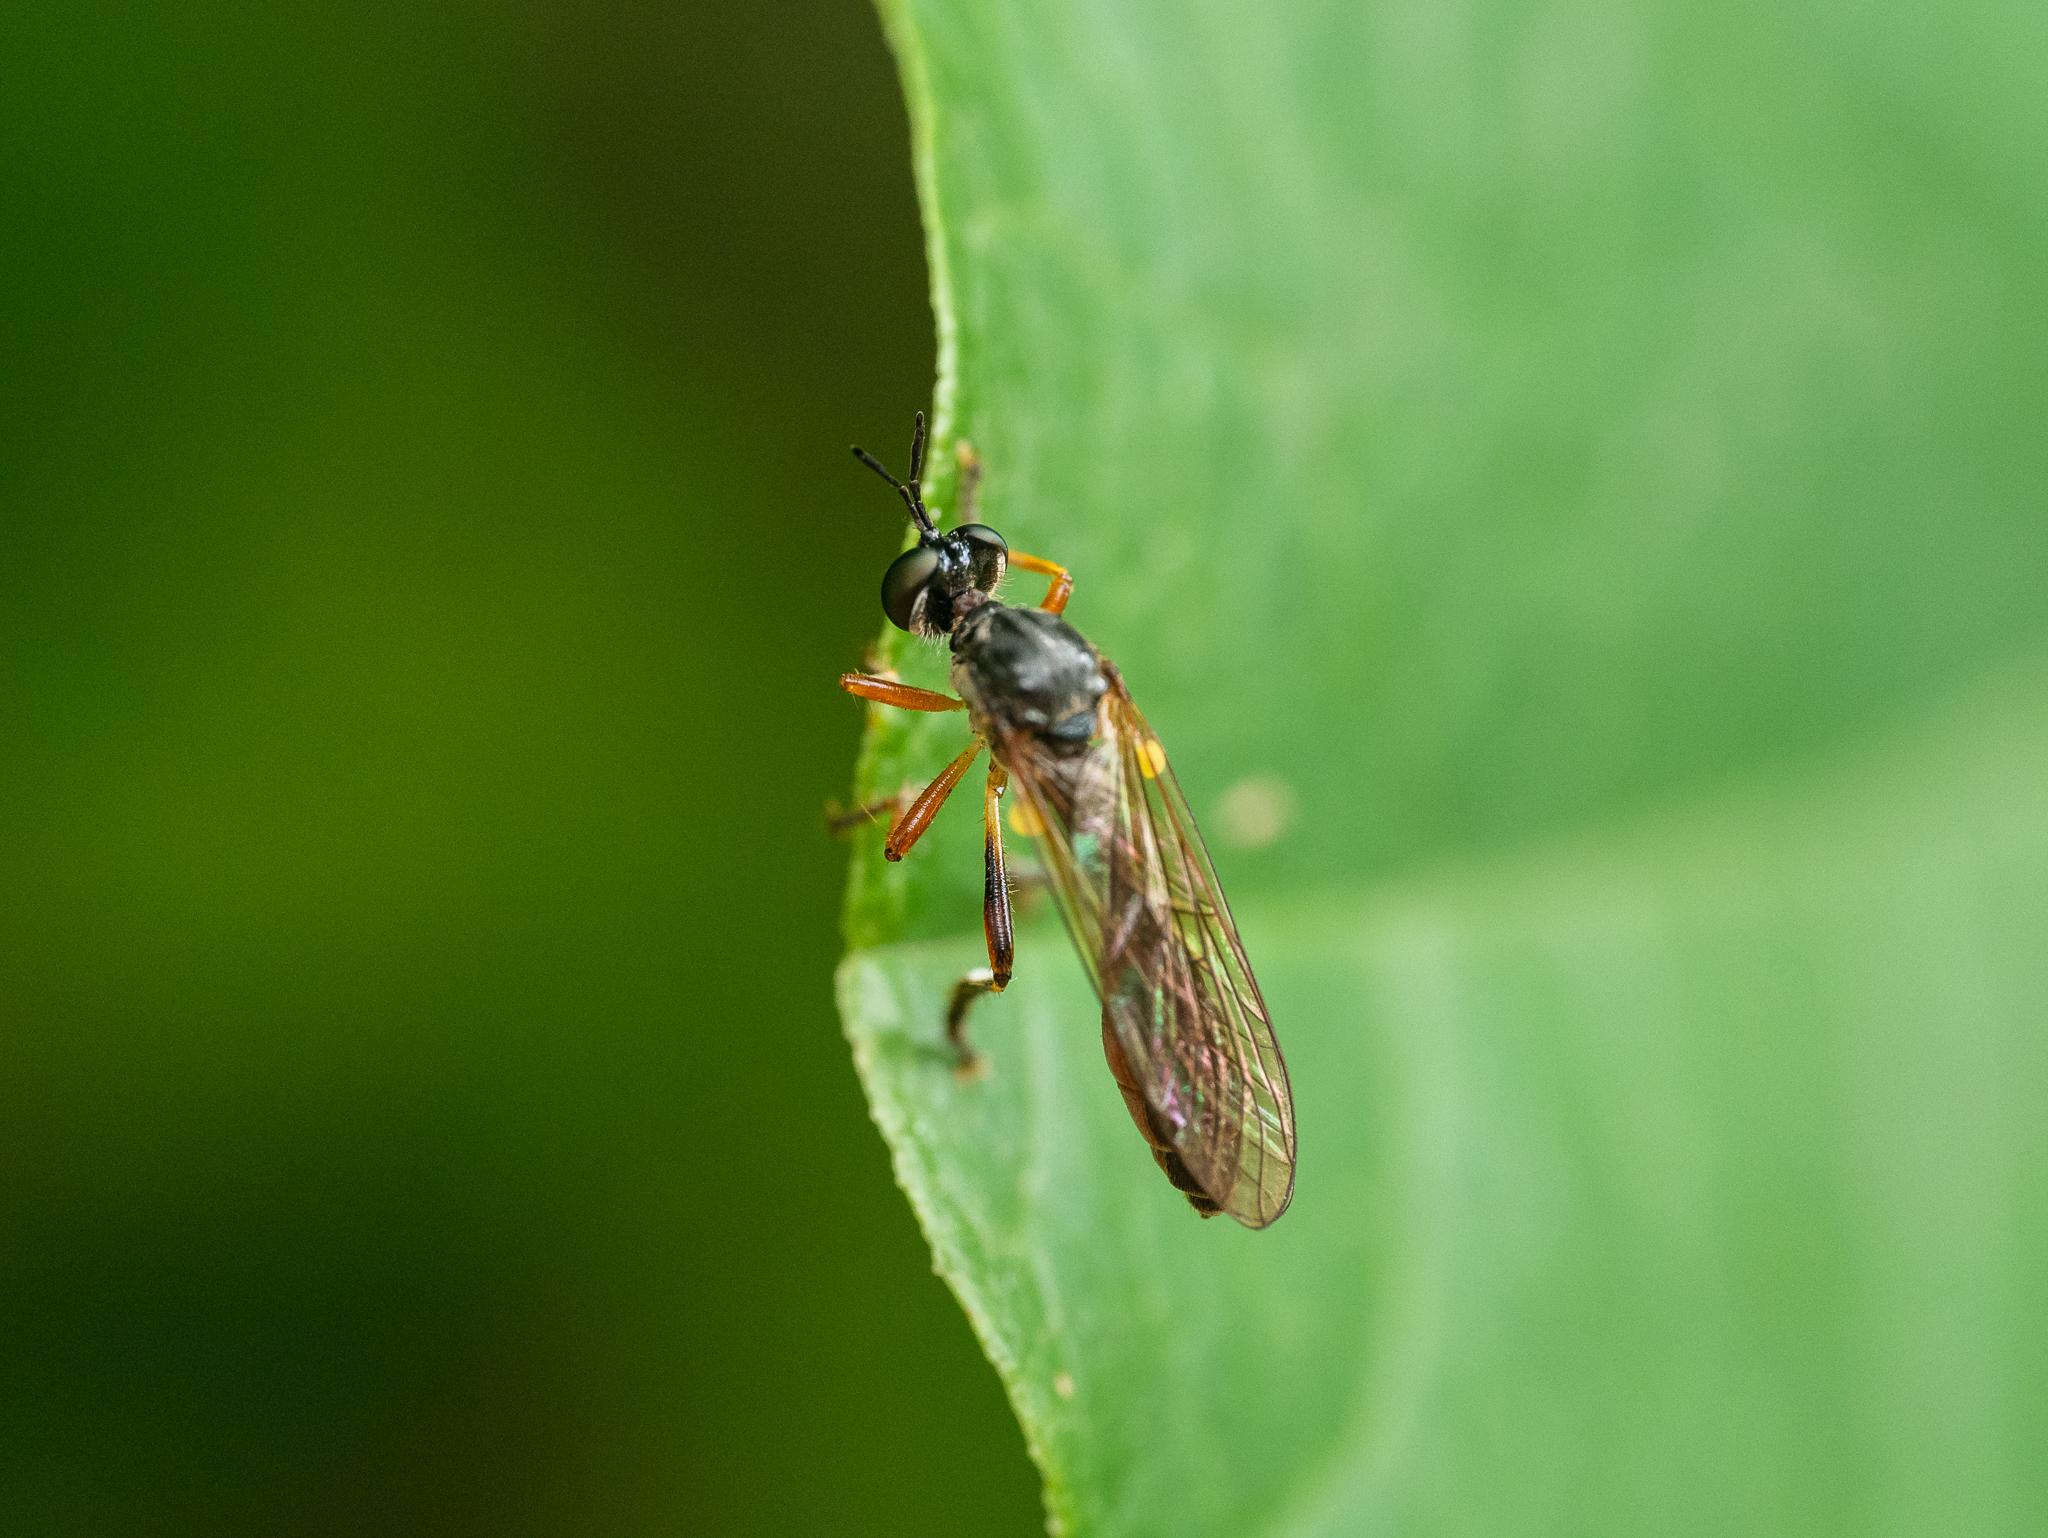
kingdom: Animalia
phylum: Arthropoda
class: Insecta
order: Diptera
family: Asilidae
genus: Dioctria
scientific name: Dioctria hyalipennis
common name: Stripe-legged robberfly
